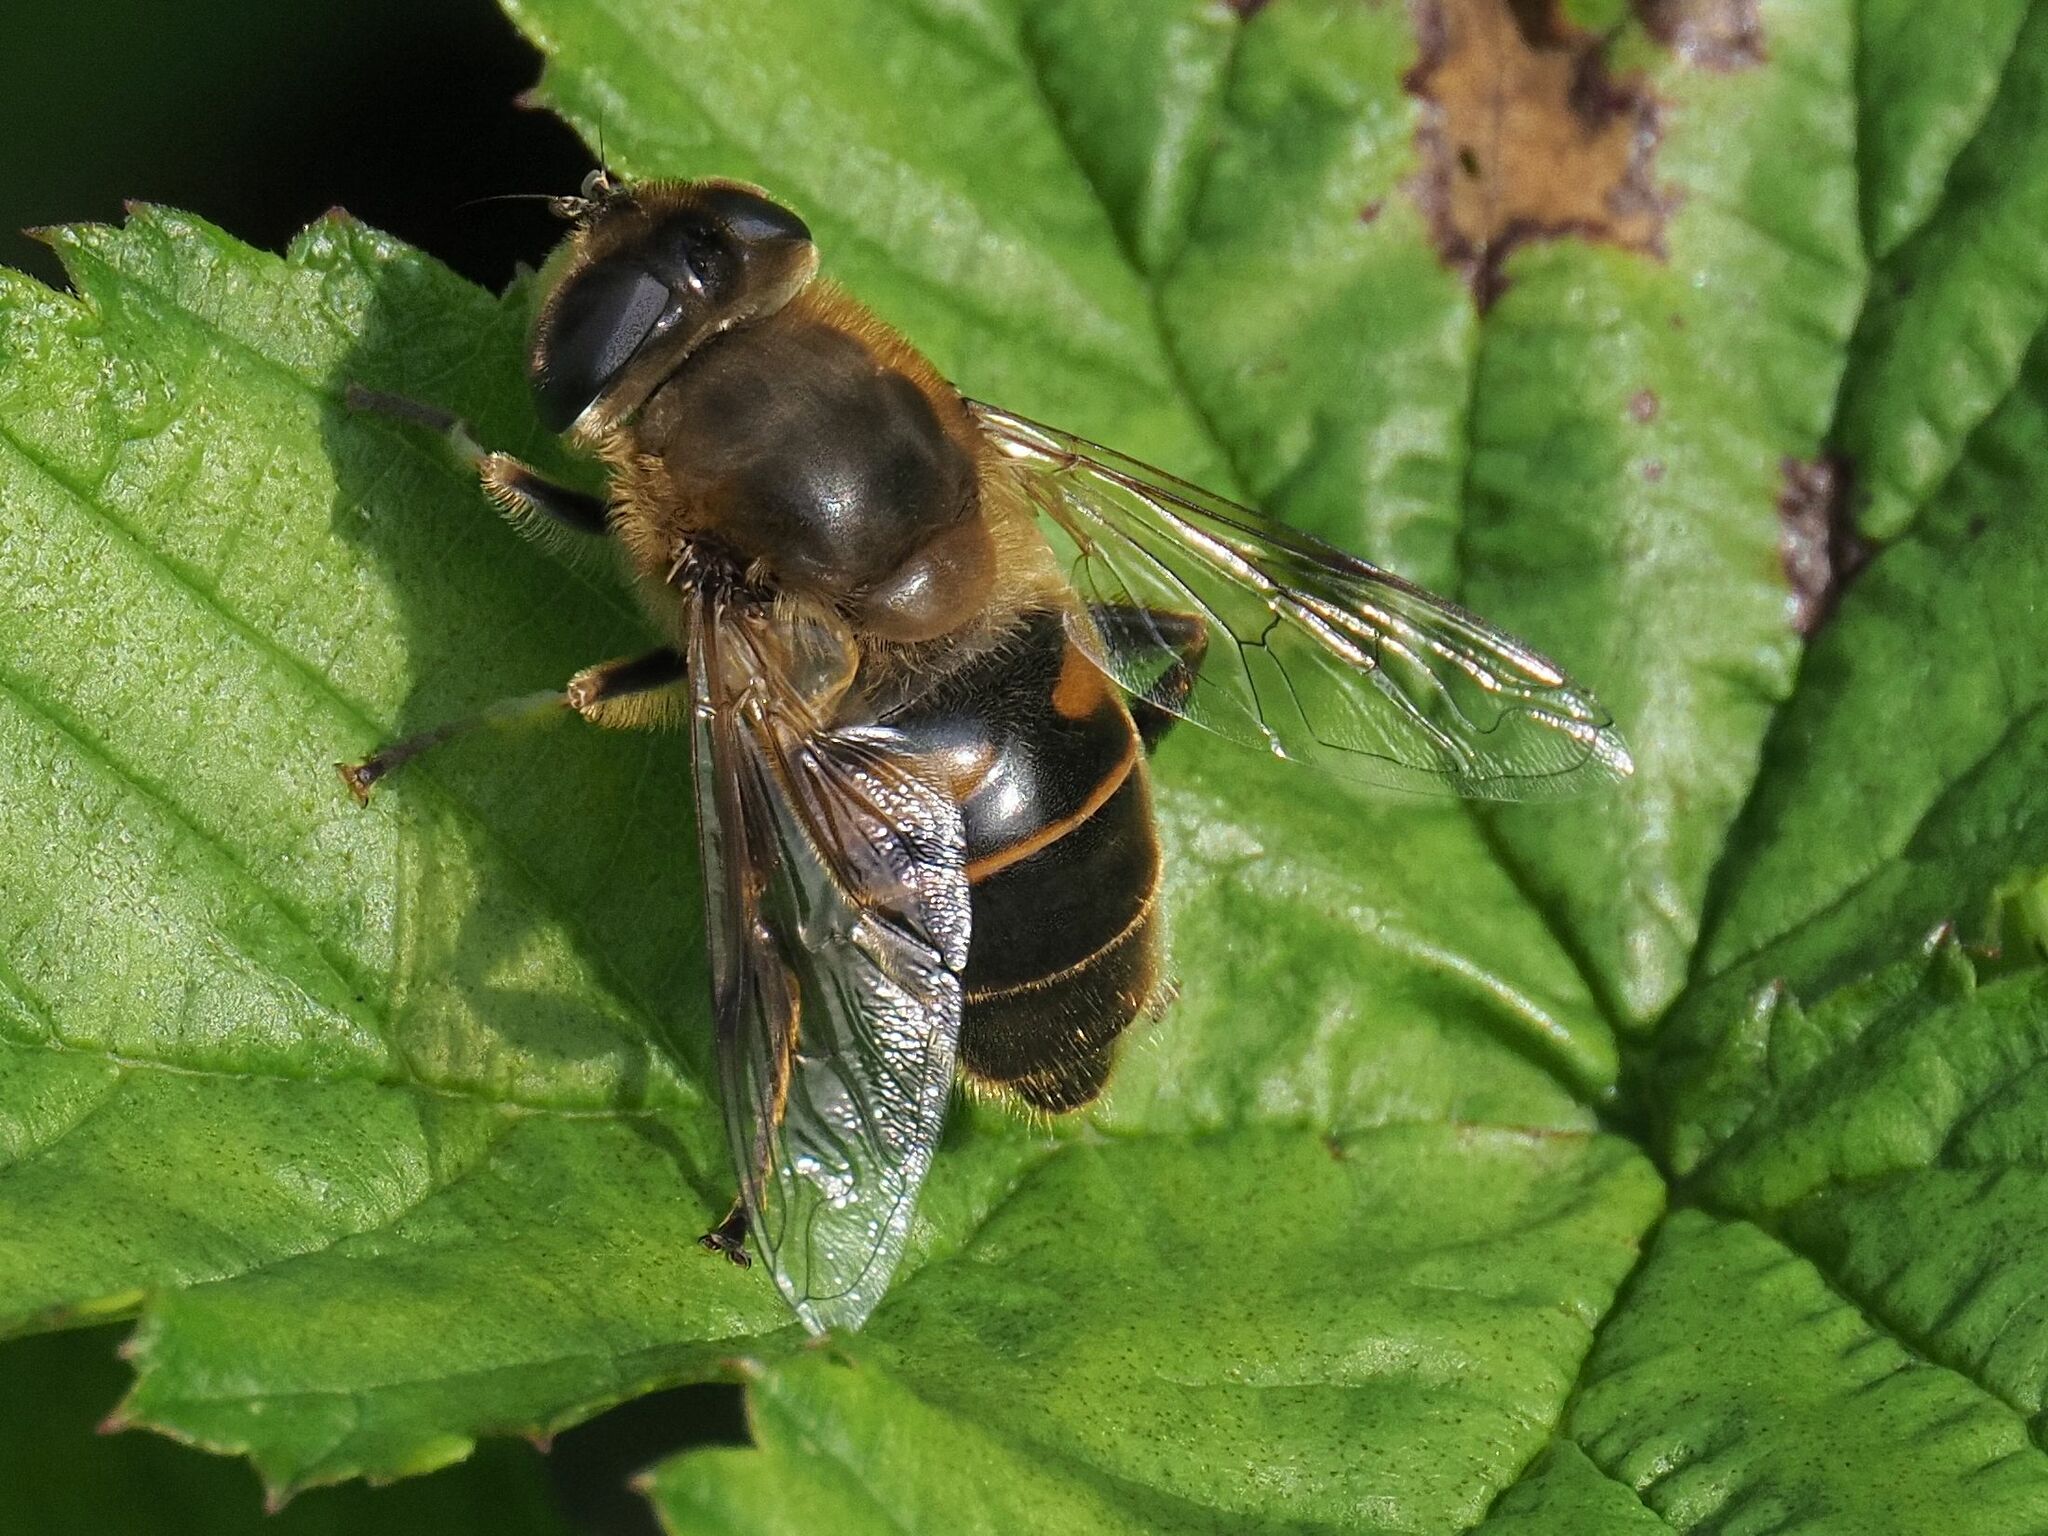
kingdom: Animalia
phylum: Arthropoda
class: Insecta
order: Diptera
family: Syrphidae
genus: Eristalis
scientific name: Eristalis tenax
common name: Drone fly
